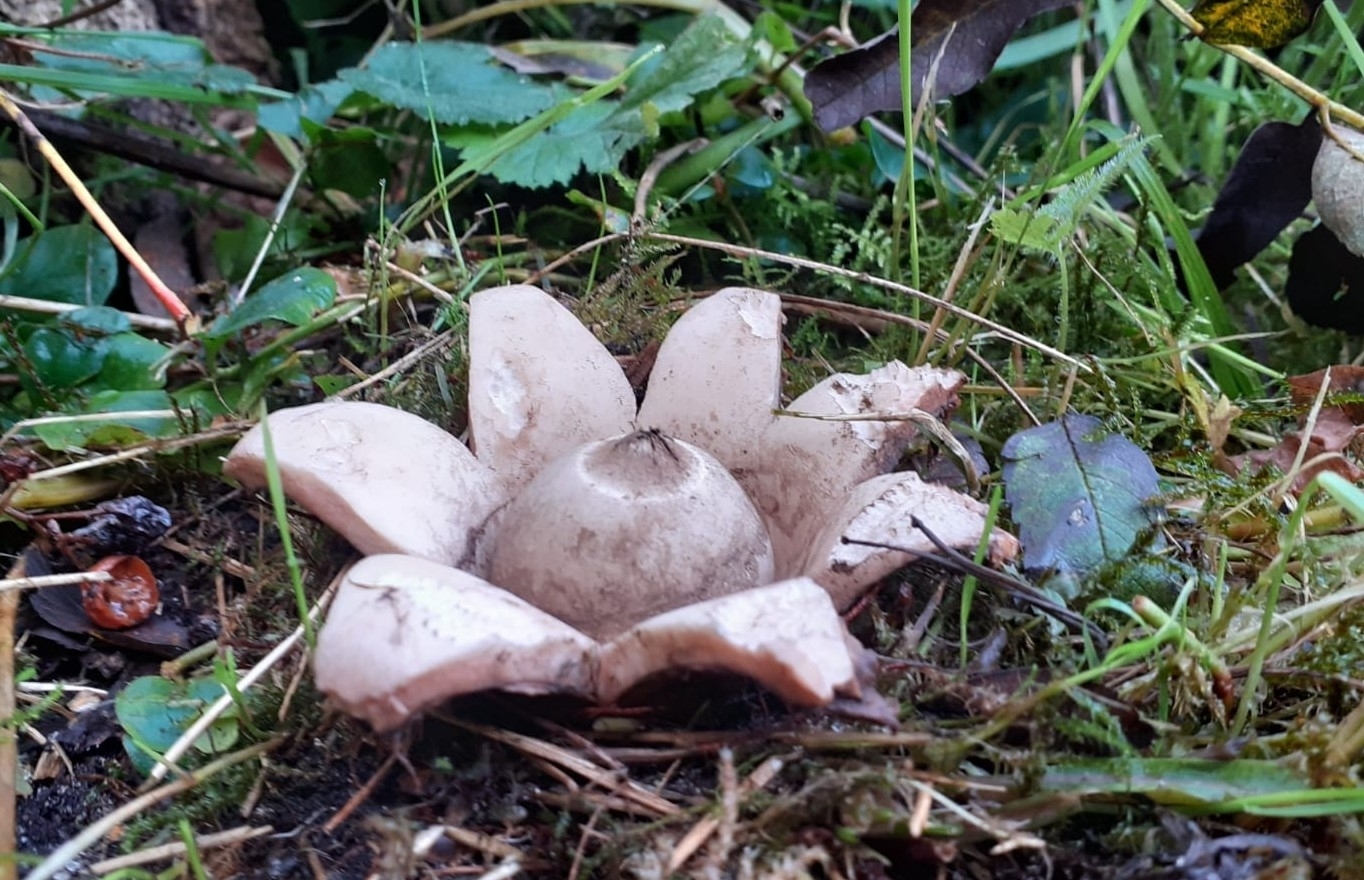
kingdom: Fungi
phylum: Basidiomycota
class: Agaricomycetes
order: Geastrales
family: Geastraceae
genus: Geastrum
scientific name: Geastrum triplex
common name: Collared earthstar
